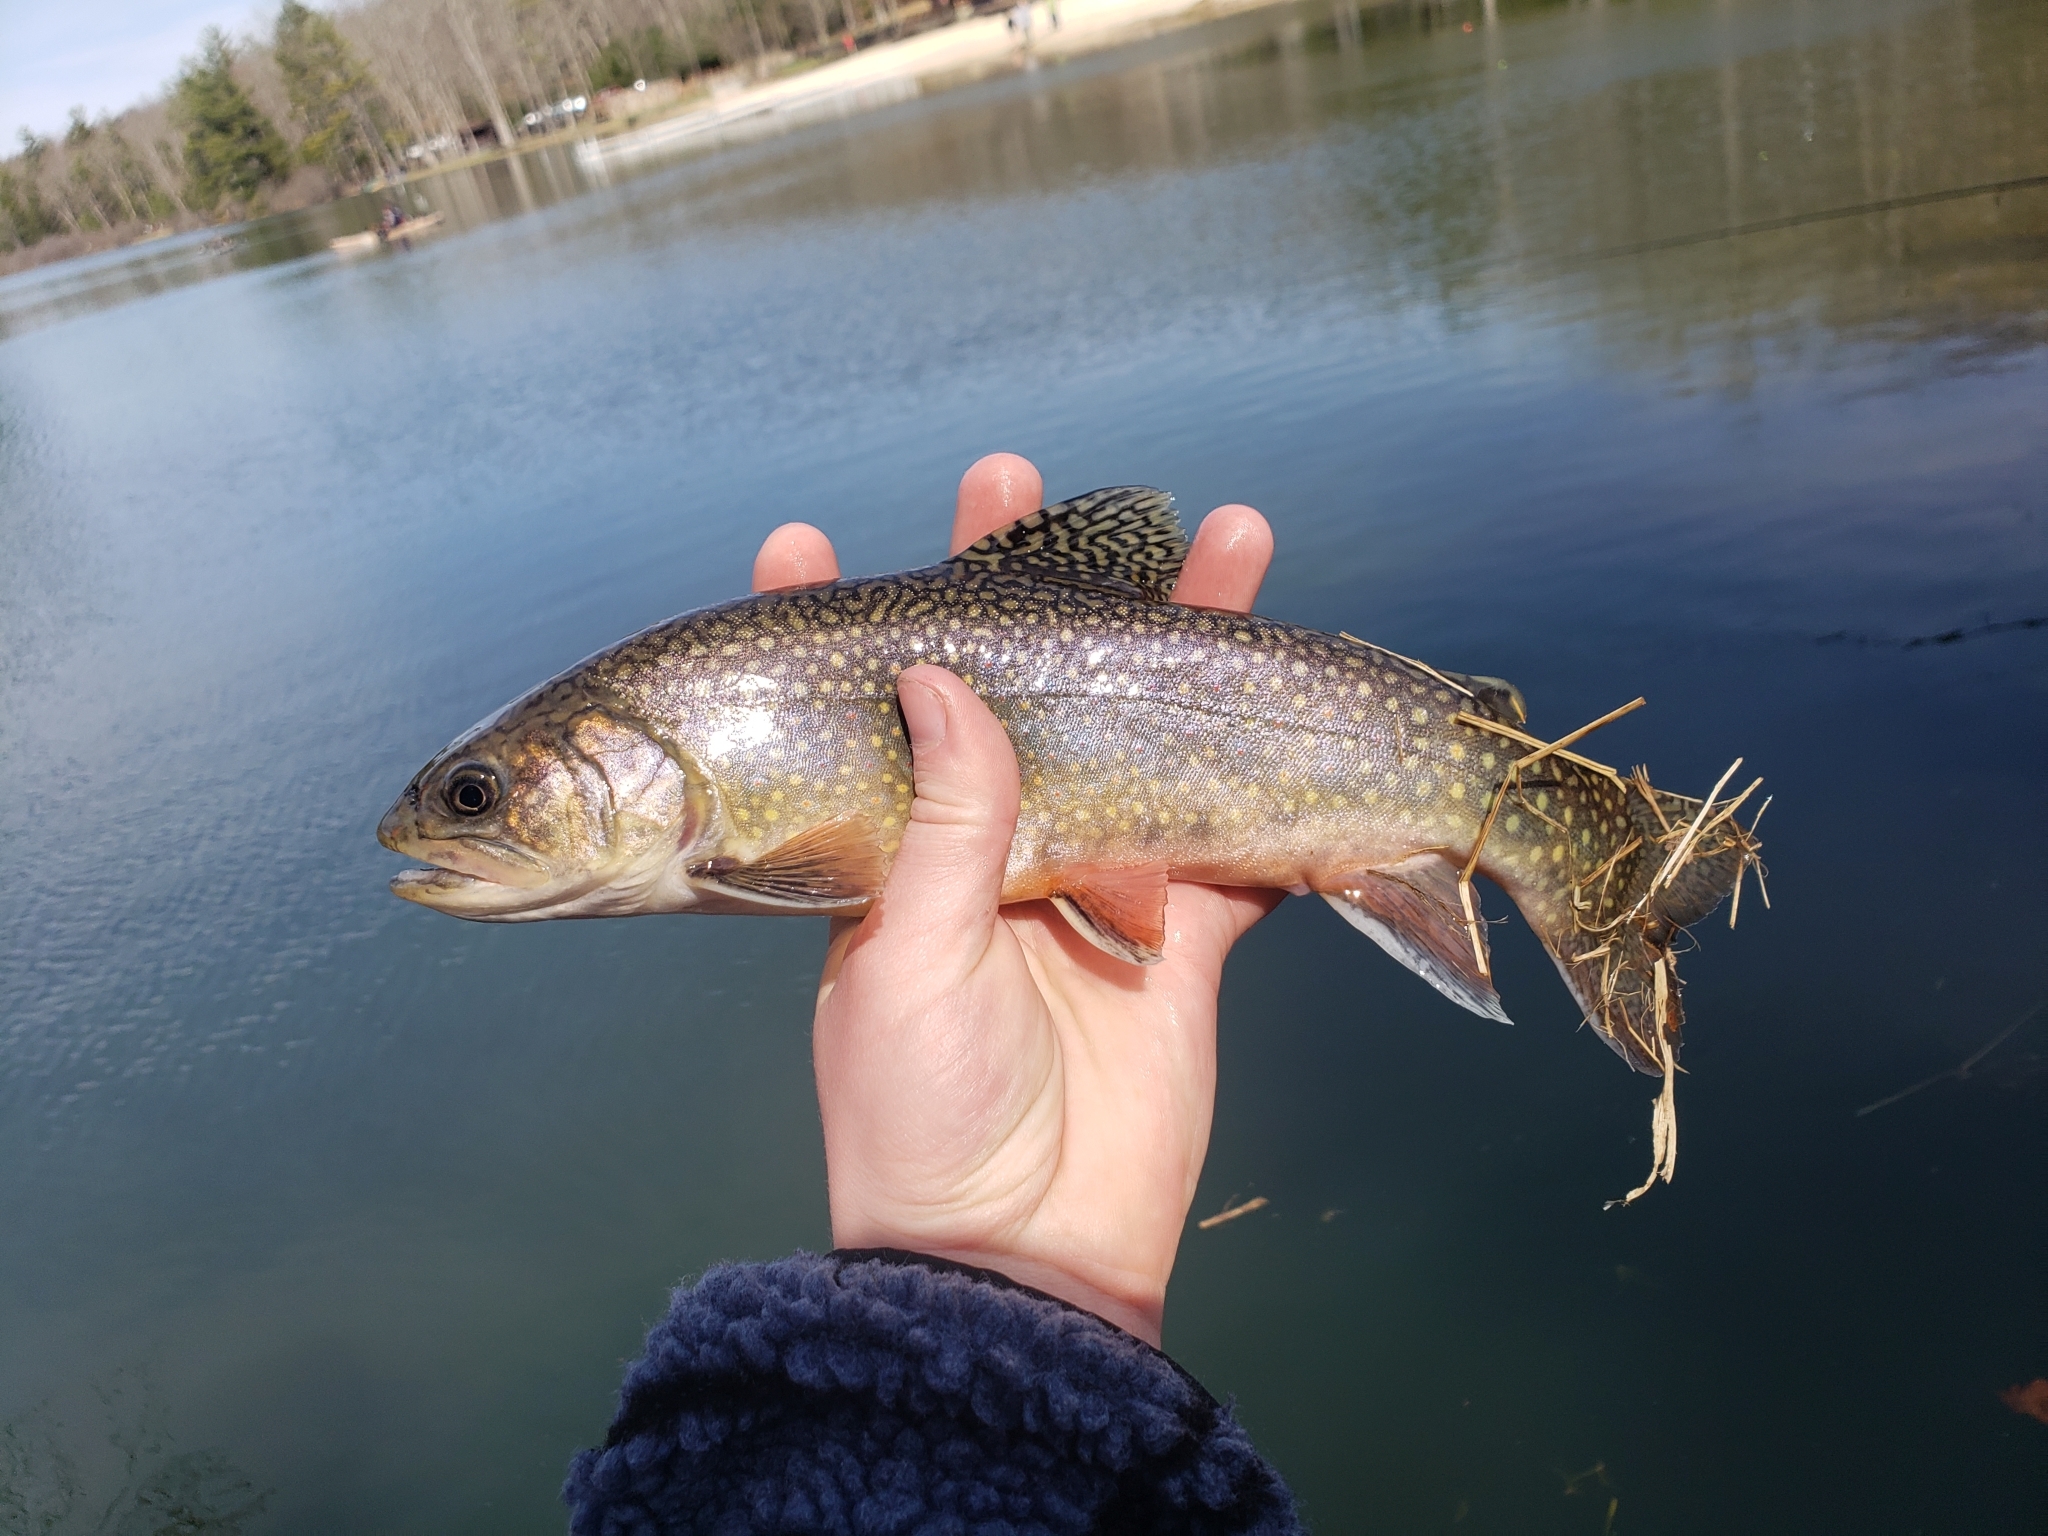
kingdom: Animalia
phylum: Chordata
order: Salmoniformes
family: Salmonidae
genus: Salvelinus
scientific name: Salvelinus fontinalis
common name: Brook trout
